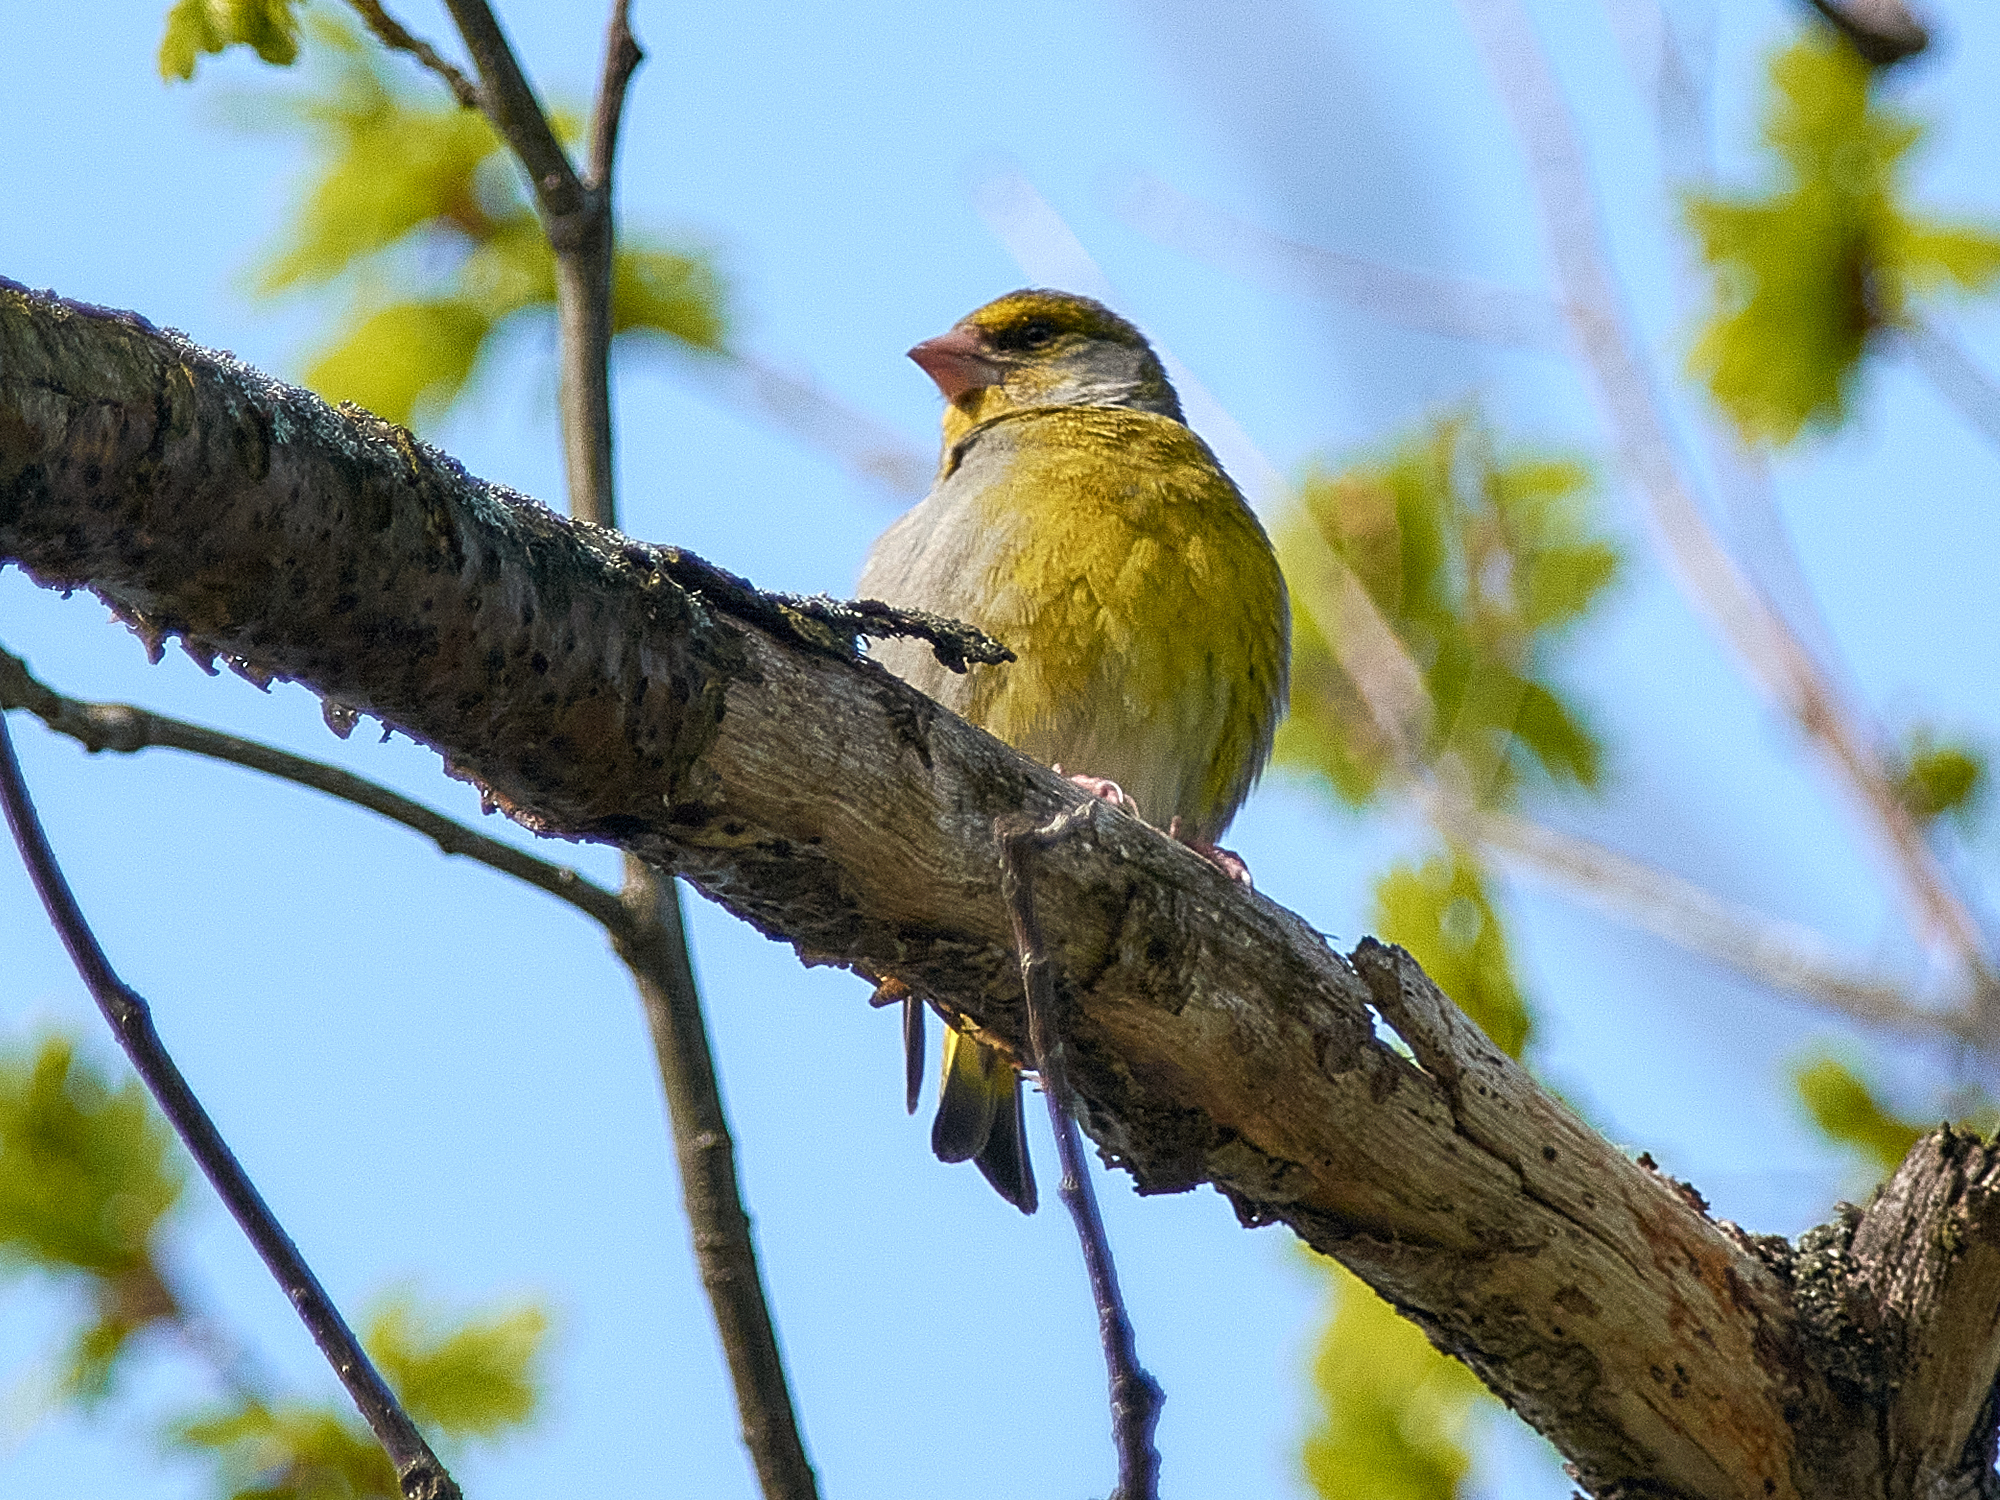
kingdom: Plantae
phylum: Tracheophyta
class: Liliopsida
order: Poales
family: Poaceae
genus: Chloris
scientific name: Chloris chloris
